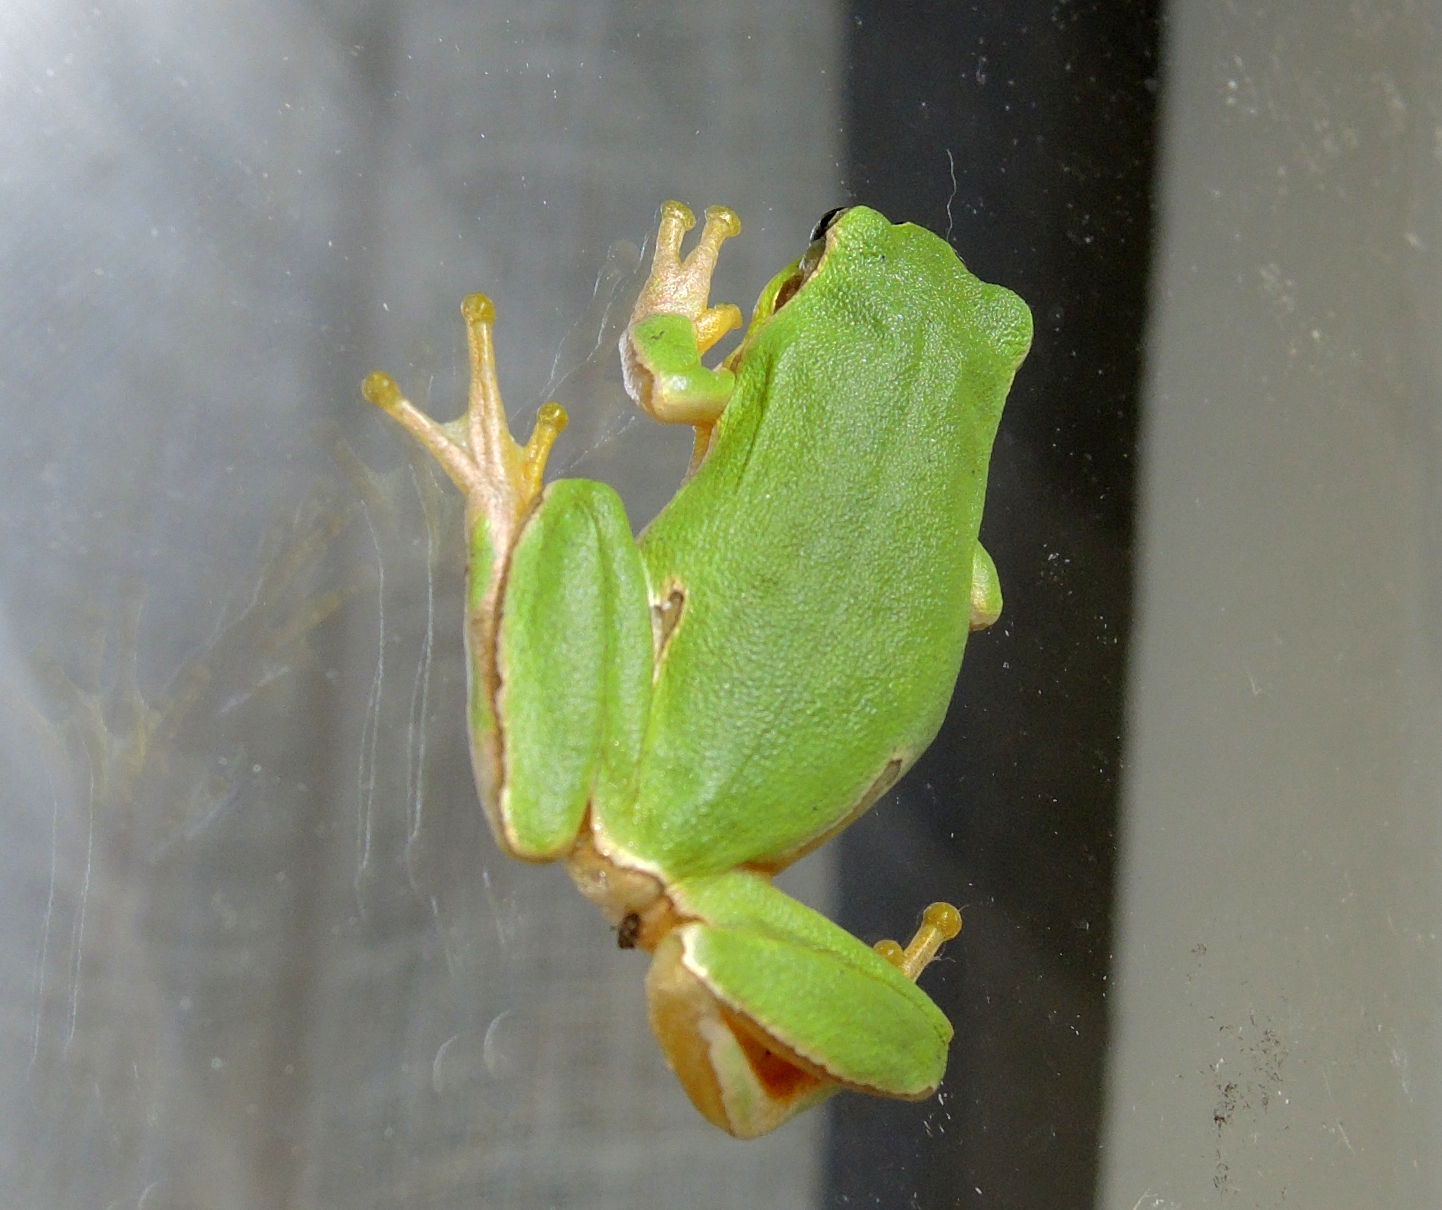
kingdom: Animalia
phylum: Chordata
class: Amphibia
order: Anura
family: Hylidae
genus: Hyla
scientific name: Hyla orientalis
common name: Caucasian treefrog
